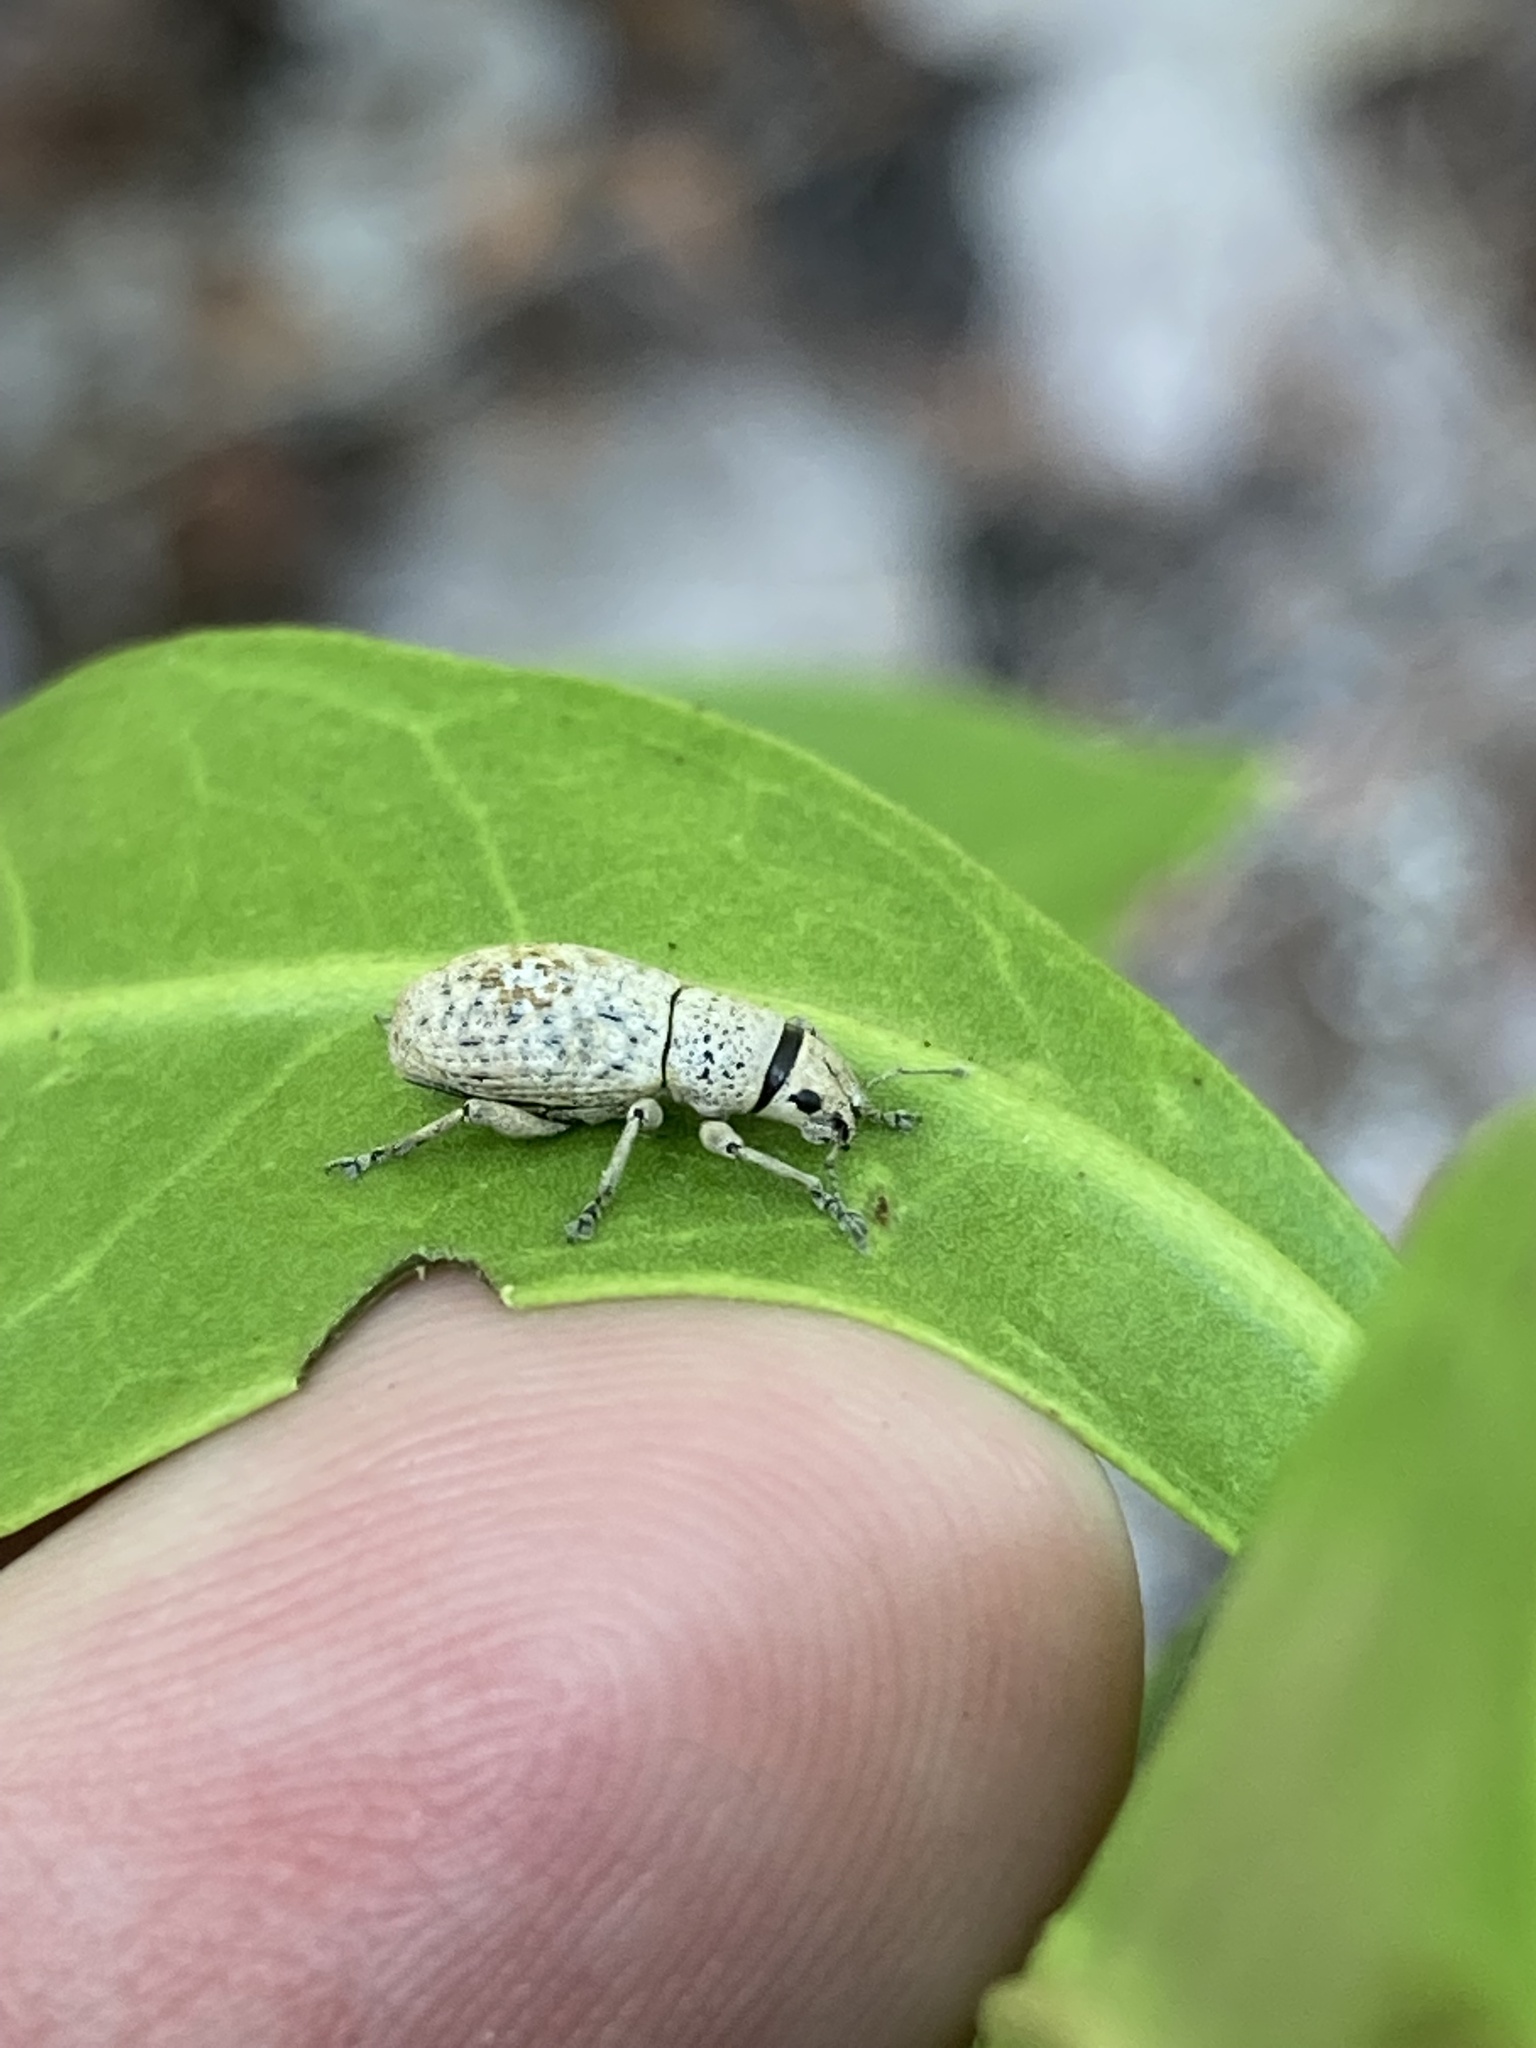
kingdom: Animalia
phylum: Arthropoda
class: Insecta
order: Coleoptera
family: Curculionidae
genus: Artipus
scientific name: Artipus floridanus
